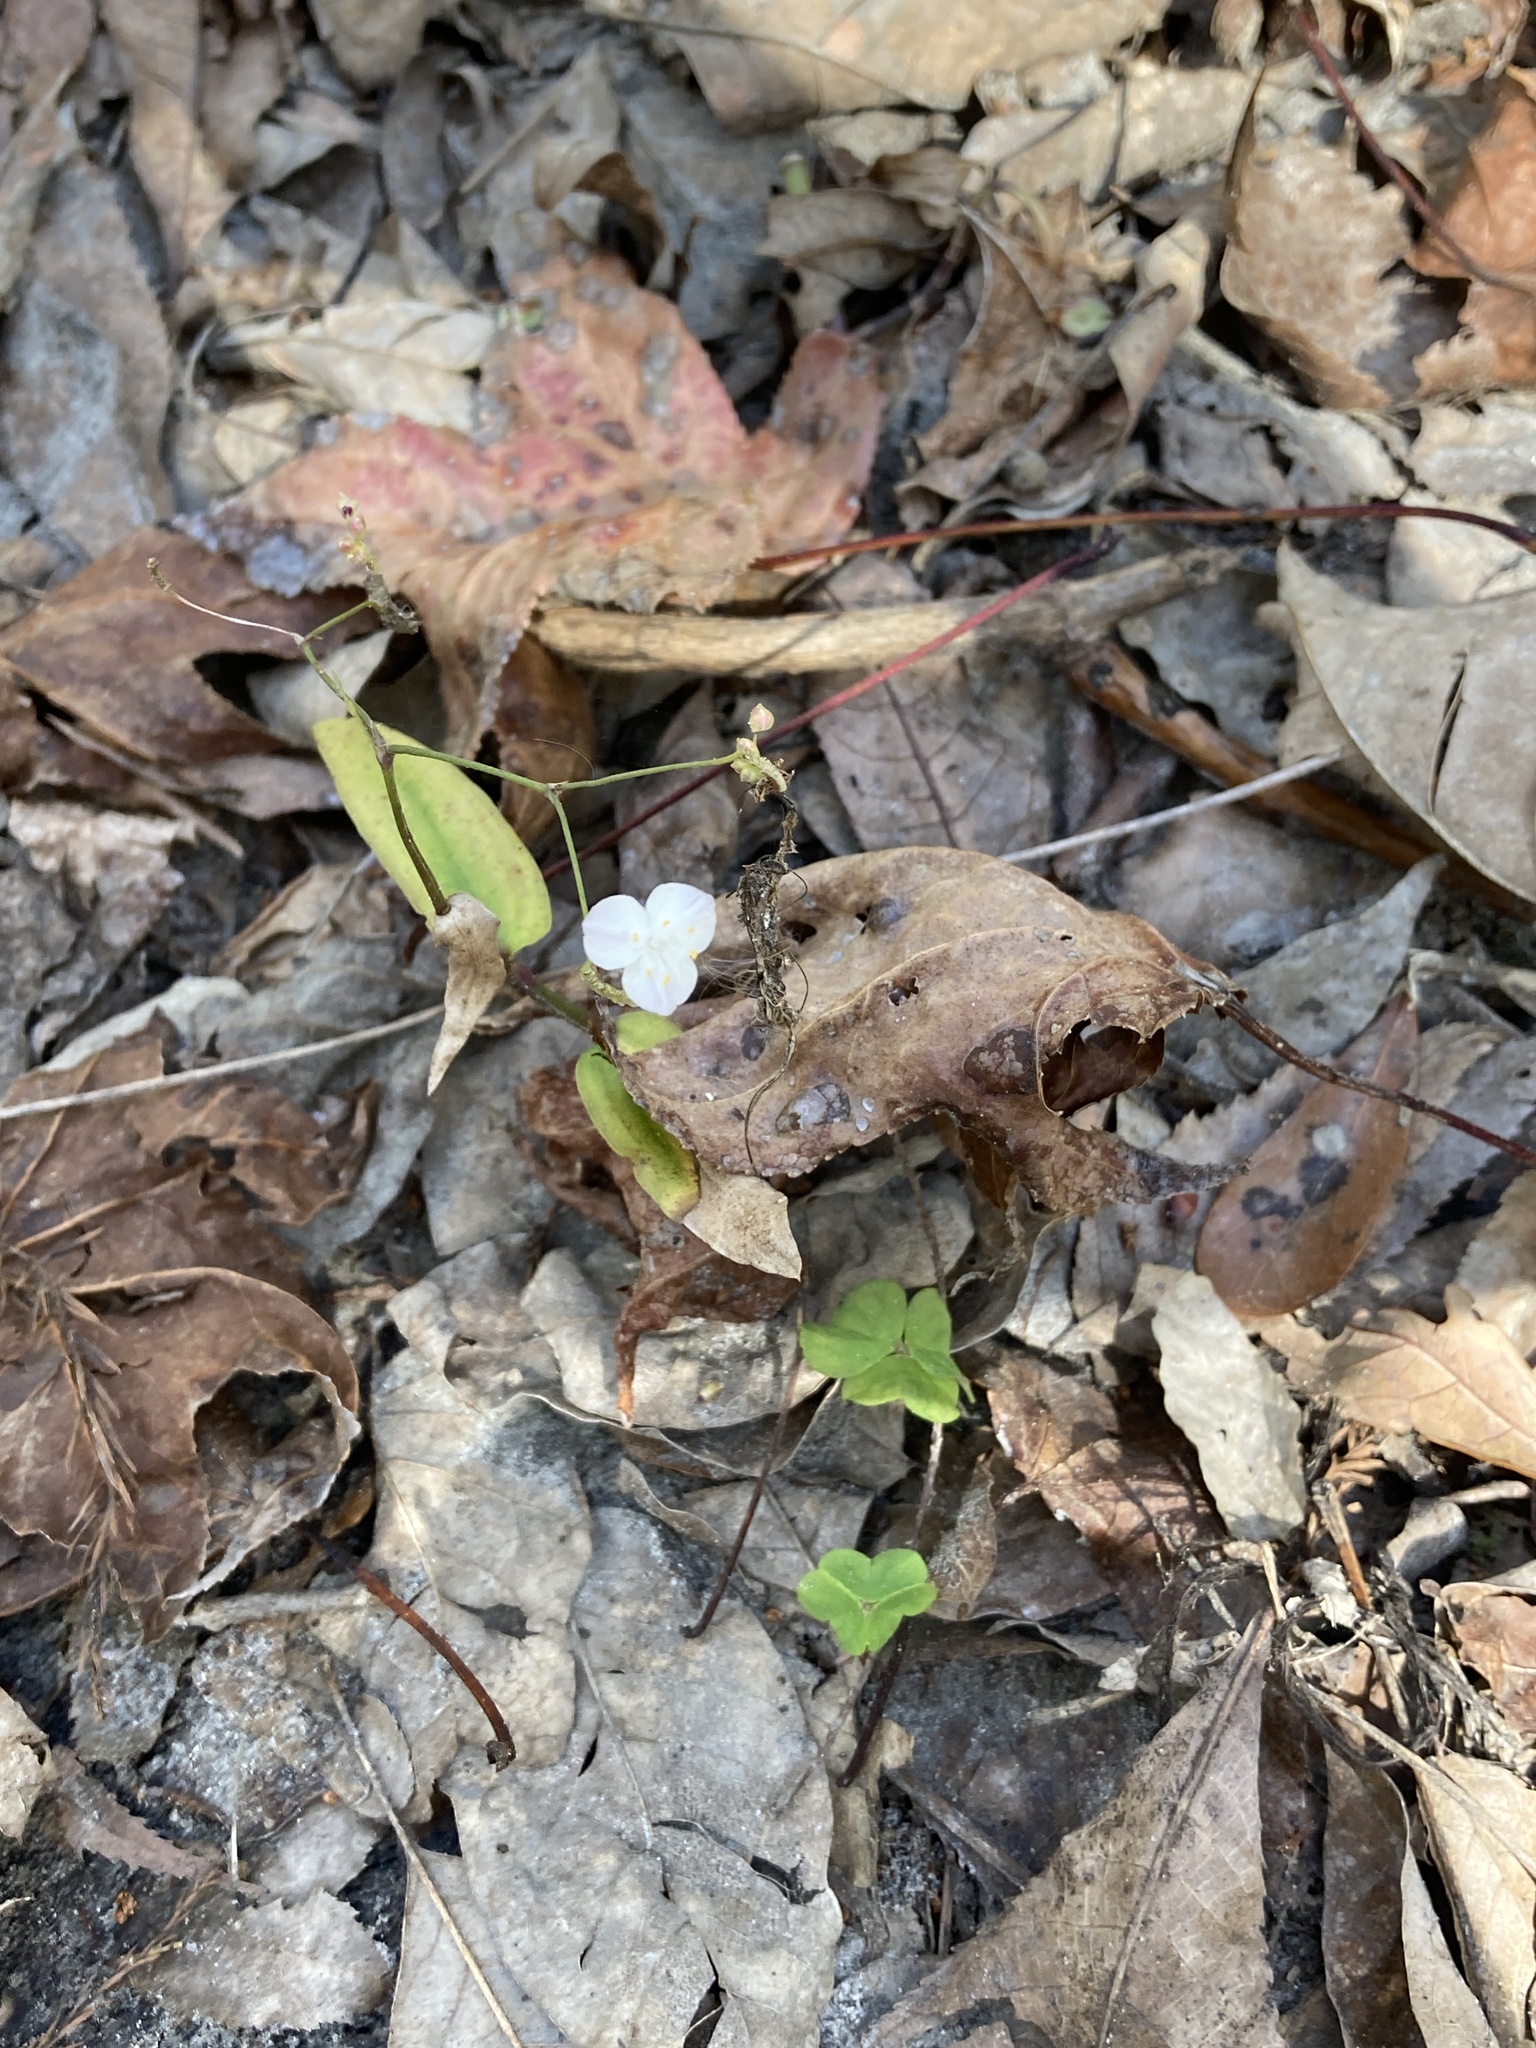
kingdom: Plantae
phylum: Tracheophyta
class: Liliopsida
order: Commelinales
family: Commelinaceae
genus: Gibasis
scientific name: Gibasis pellucida
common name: Dotted bridalveil
